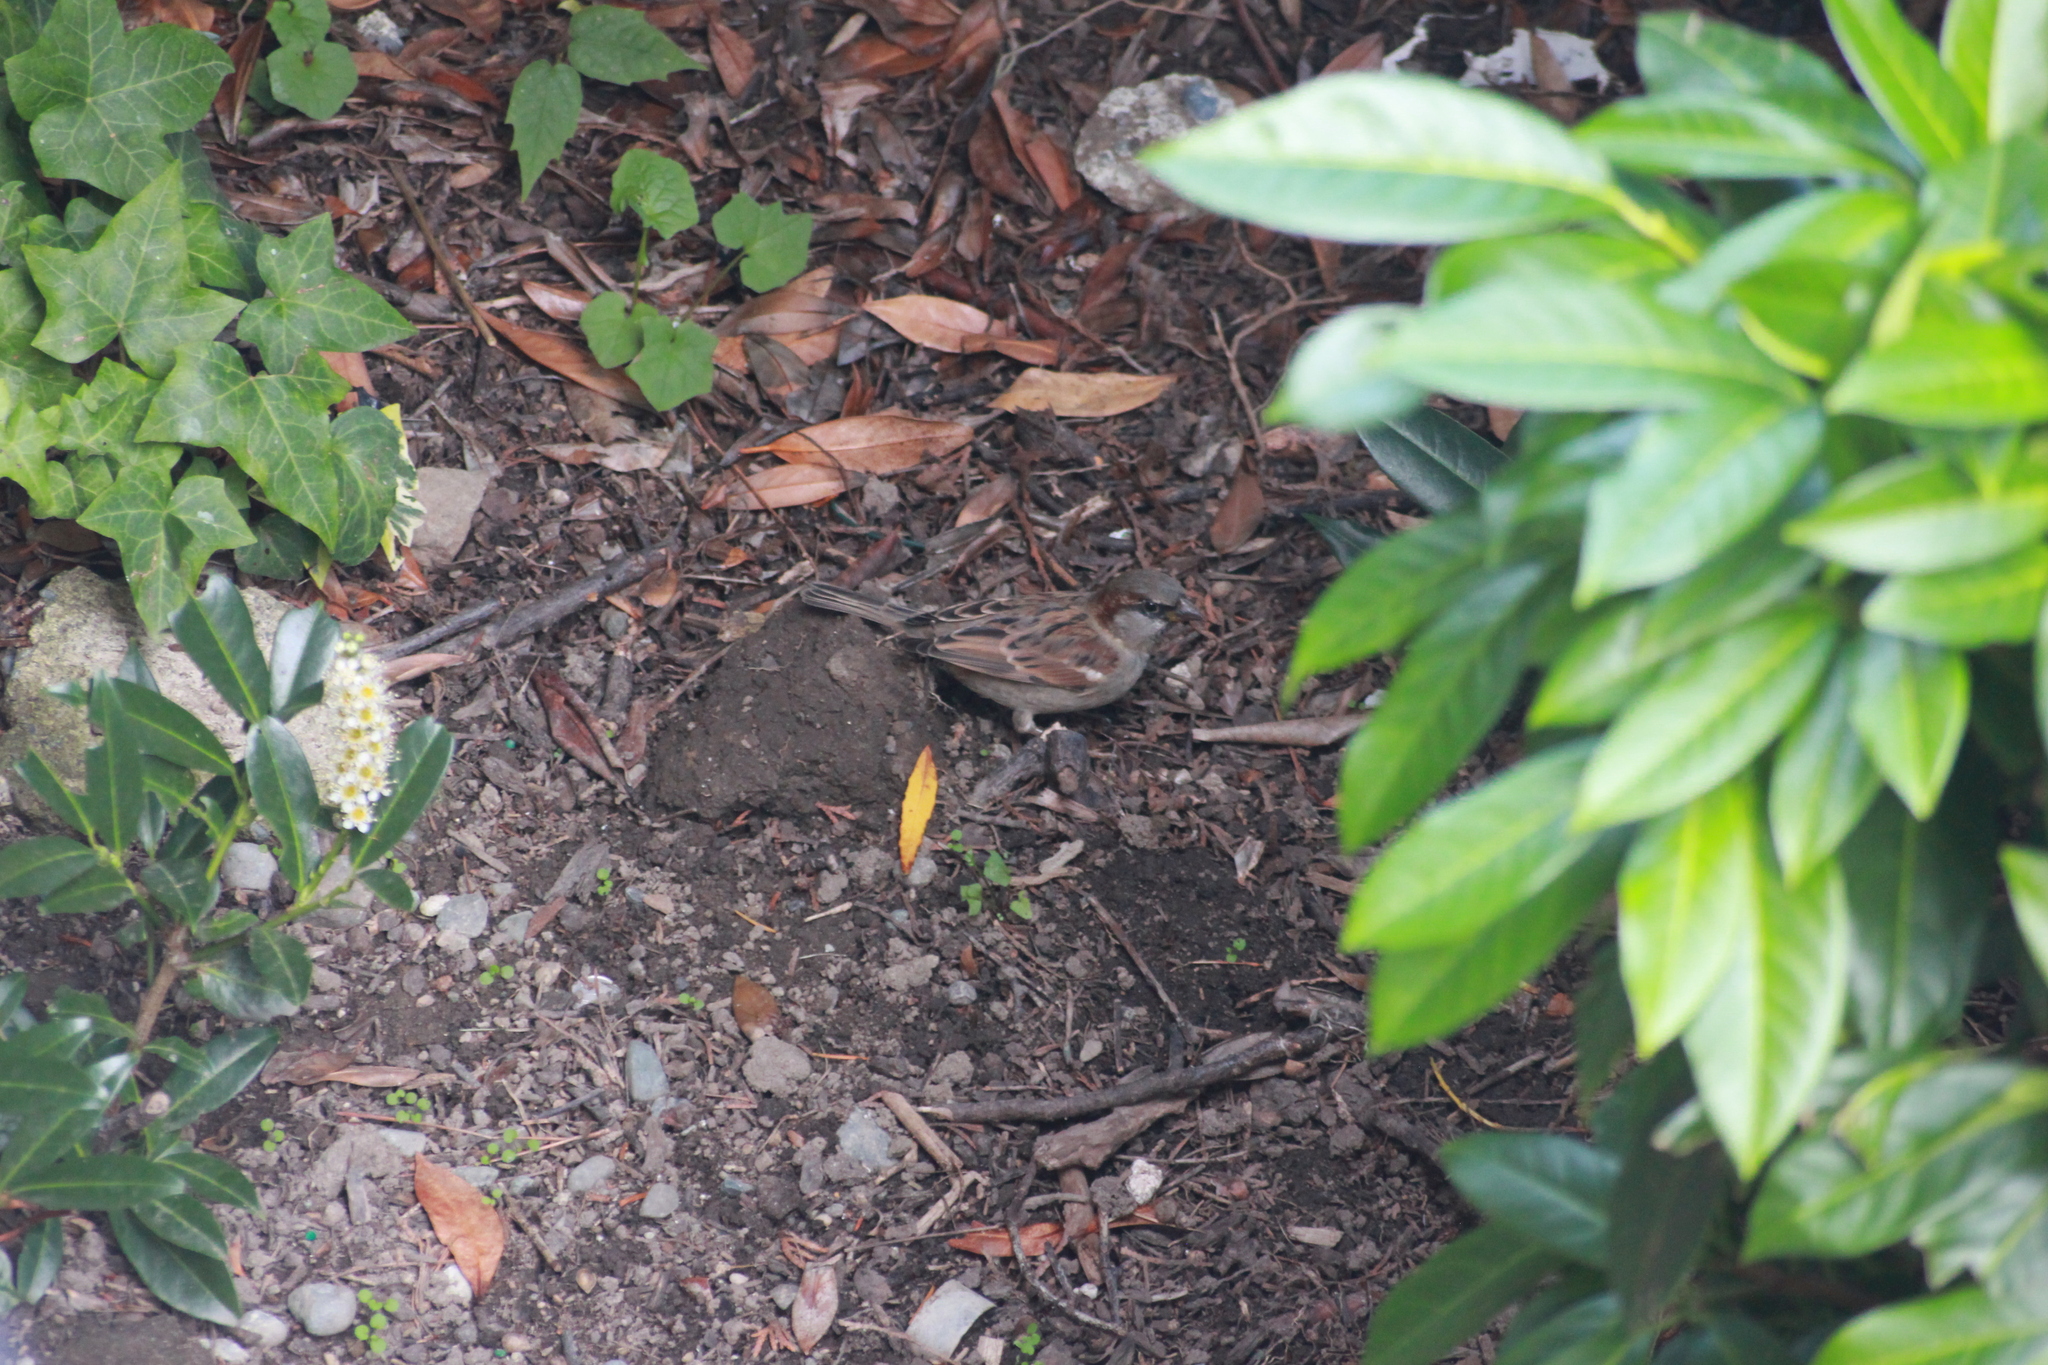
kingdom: Animalia
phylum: Chordata
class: Aves
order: Passeriformes
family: Passeridae
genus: Passer
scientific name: Passer domesticus
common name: House sparrow
